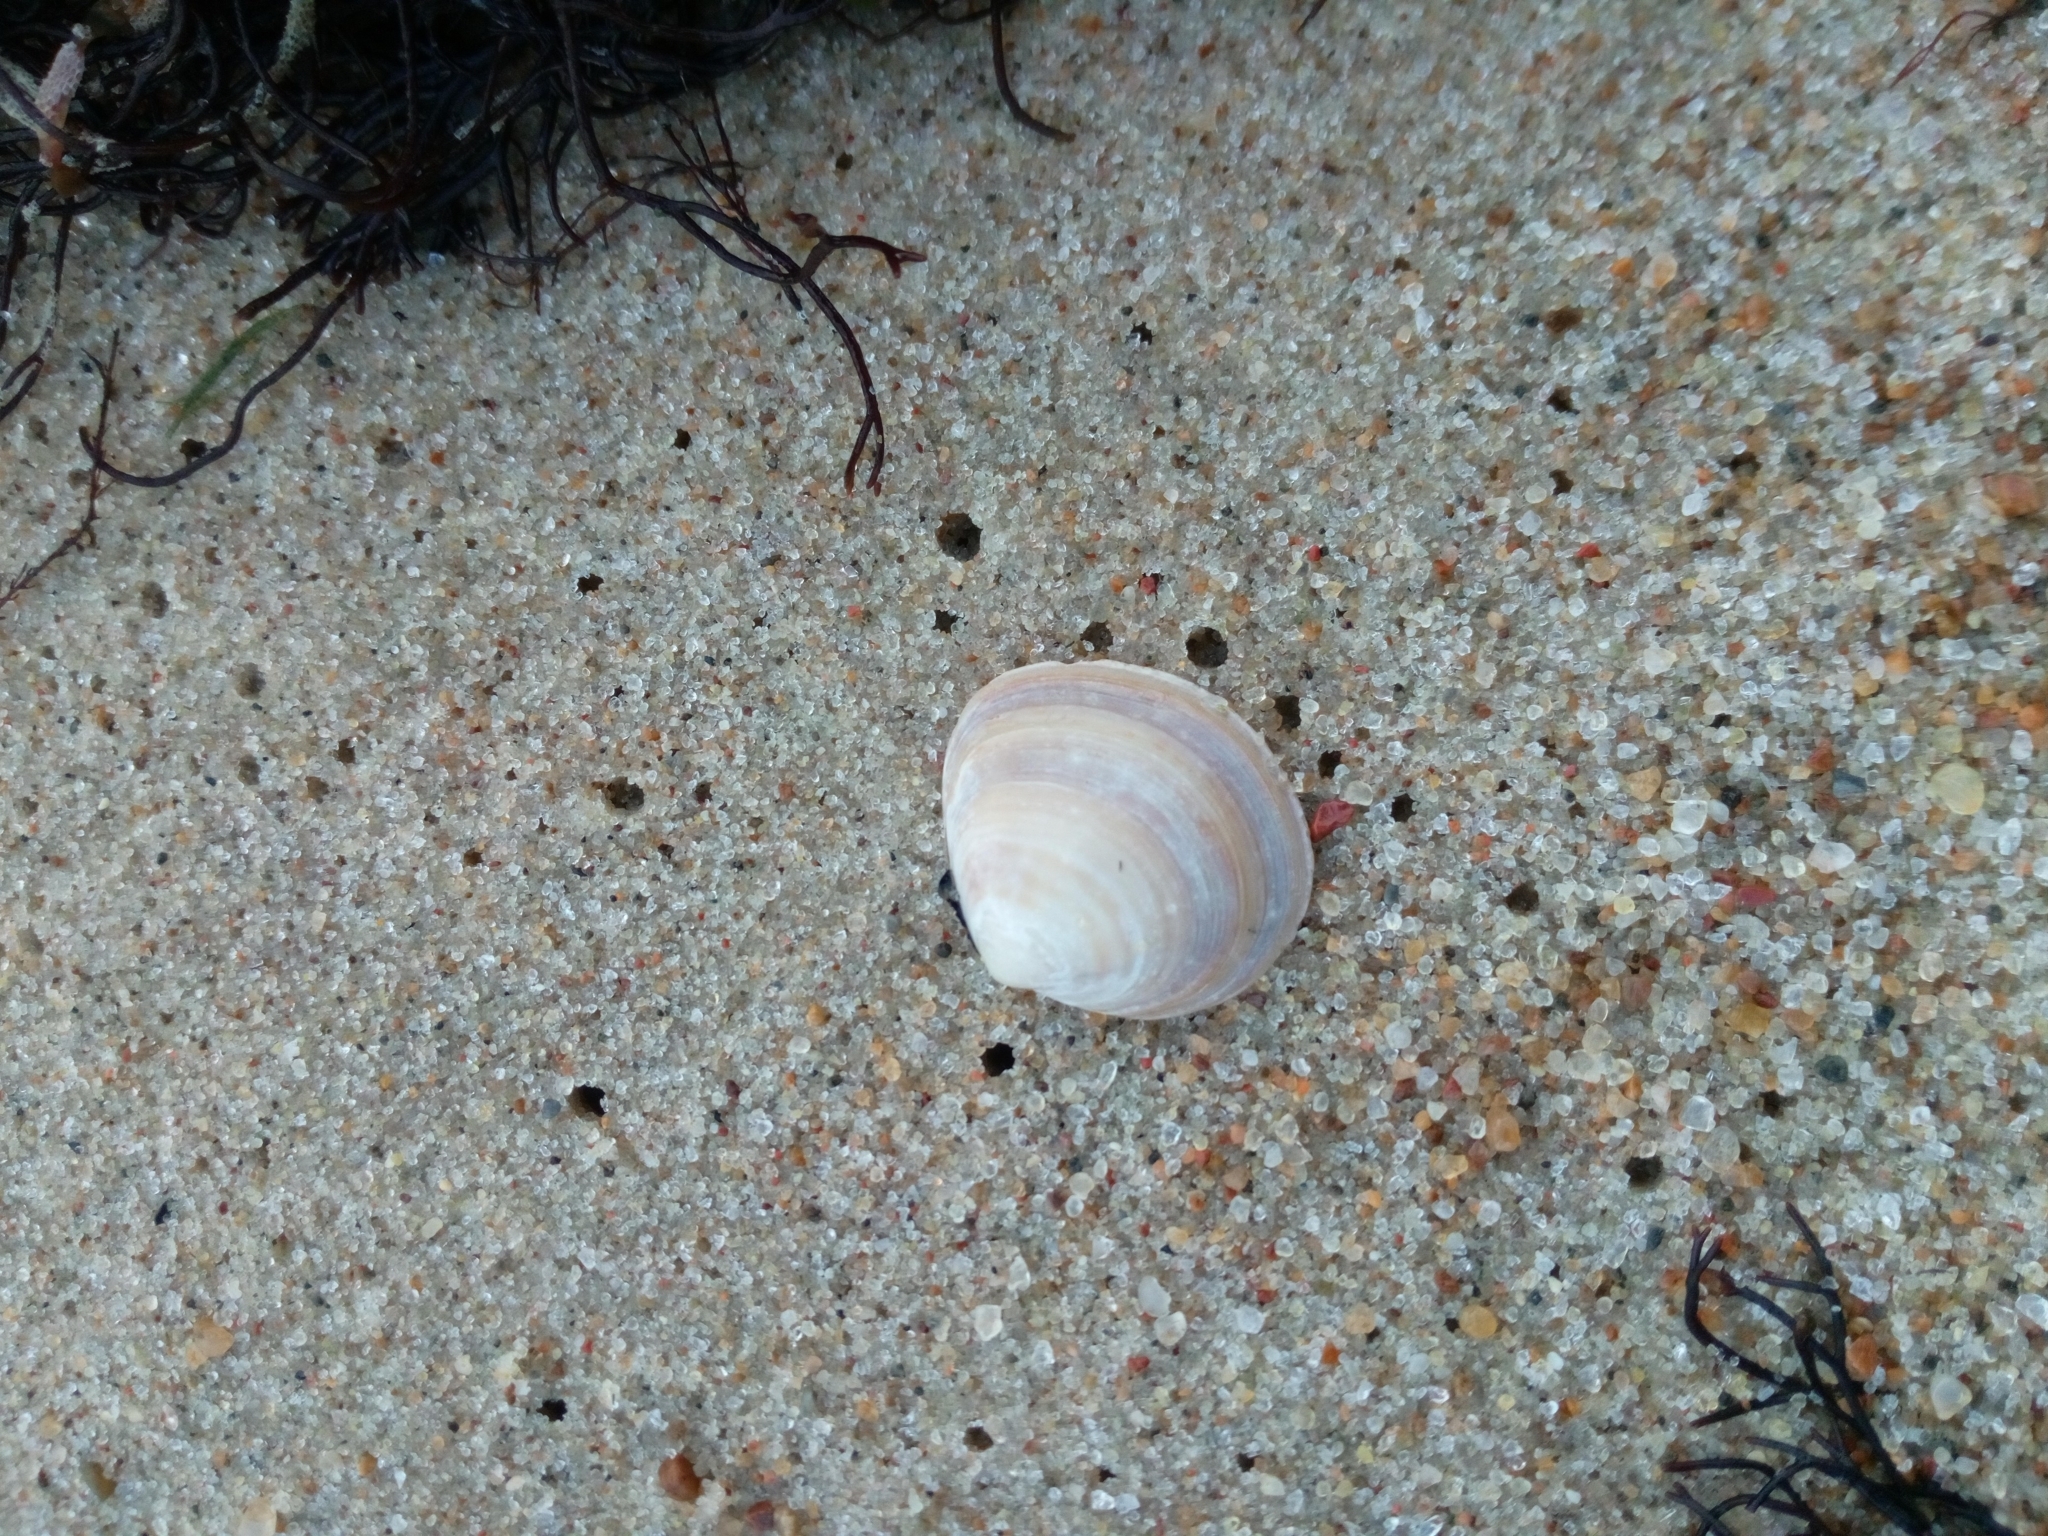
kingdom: Animalia
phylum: Mollusca
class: Bivalvia
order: Cardiida
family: Tellinidae
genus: Macoma
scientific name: Macoma balthica
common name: Baltic tellin
